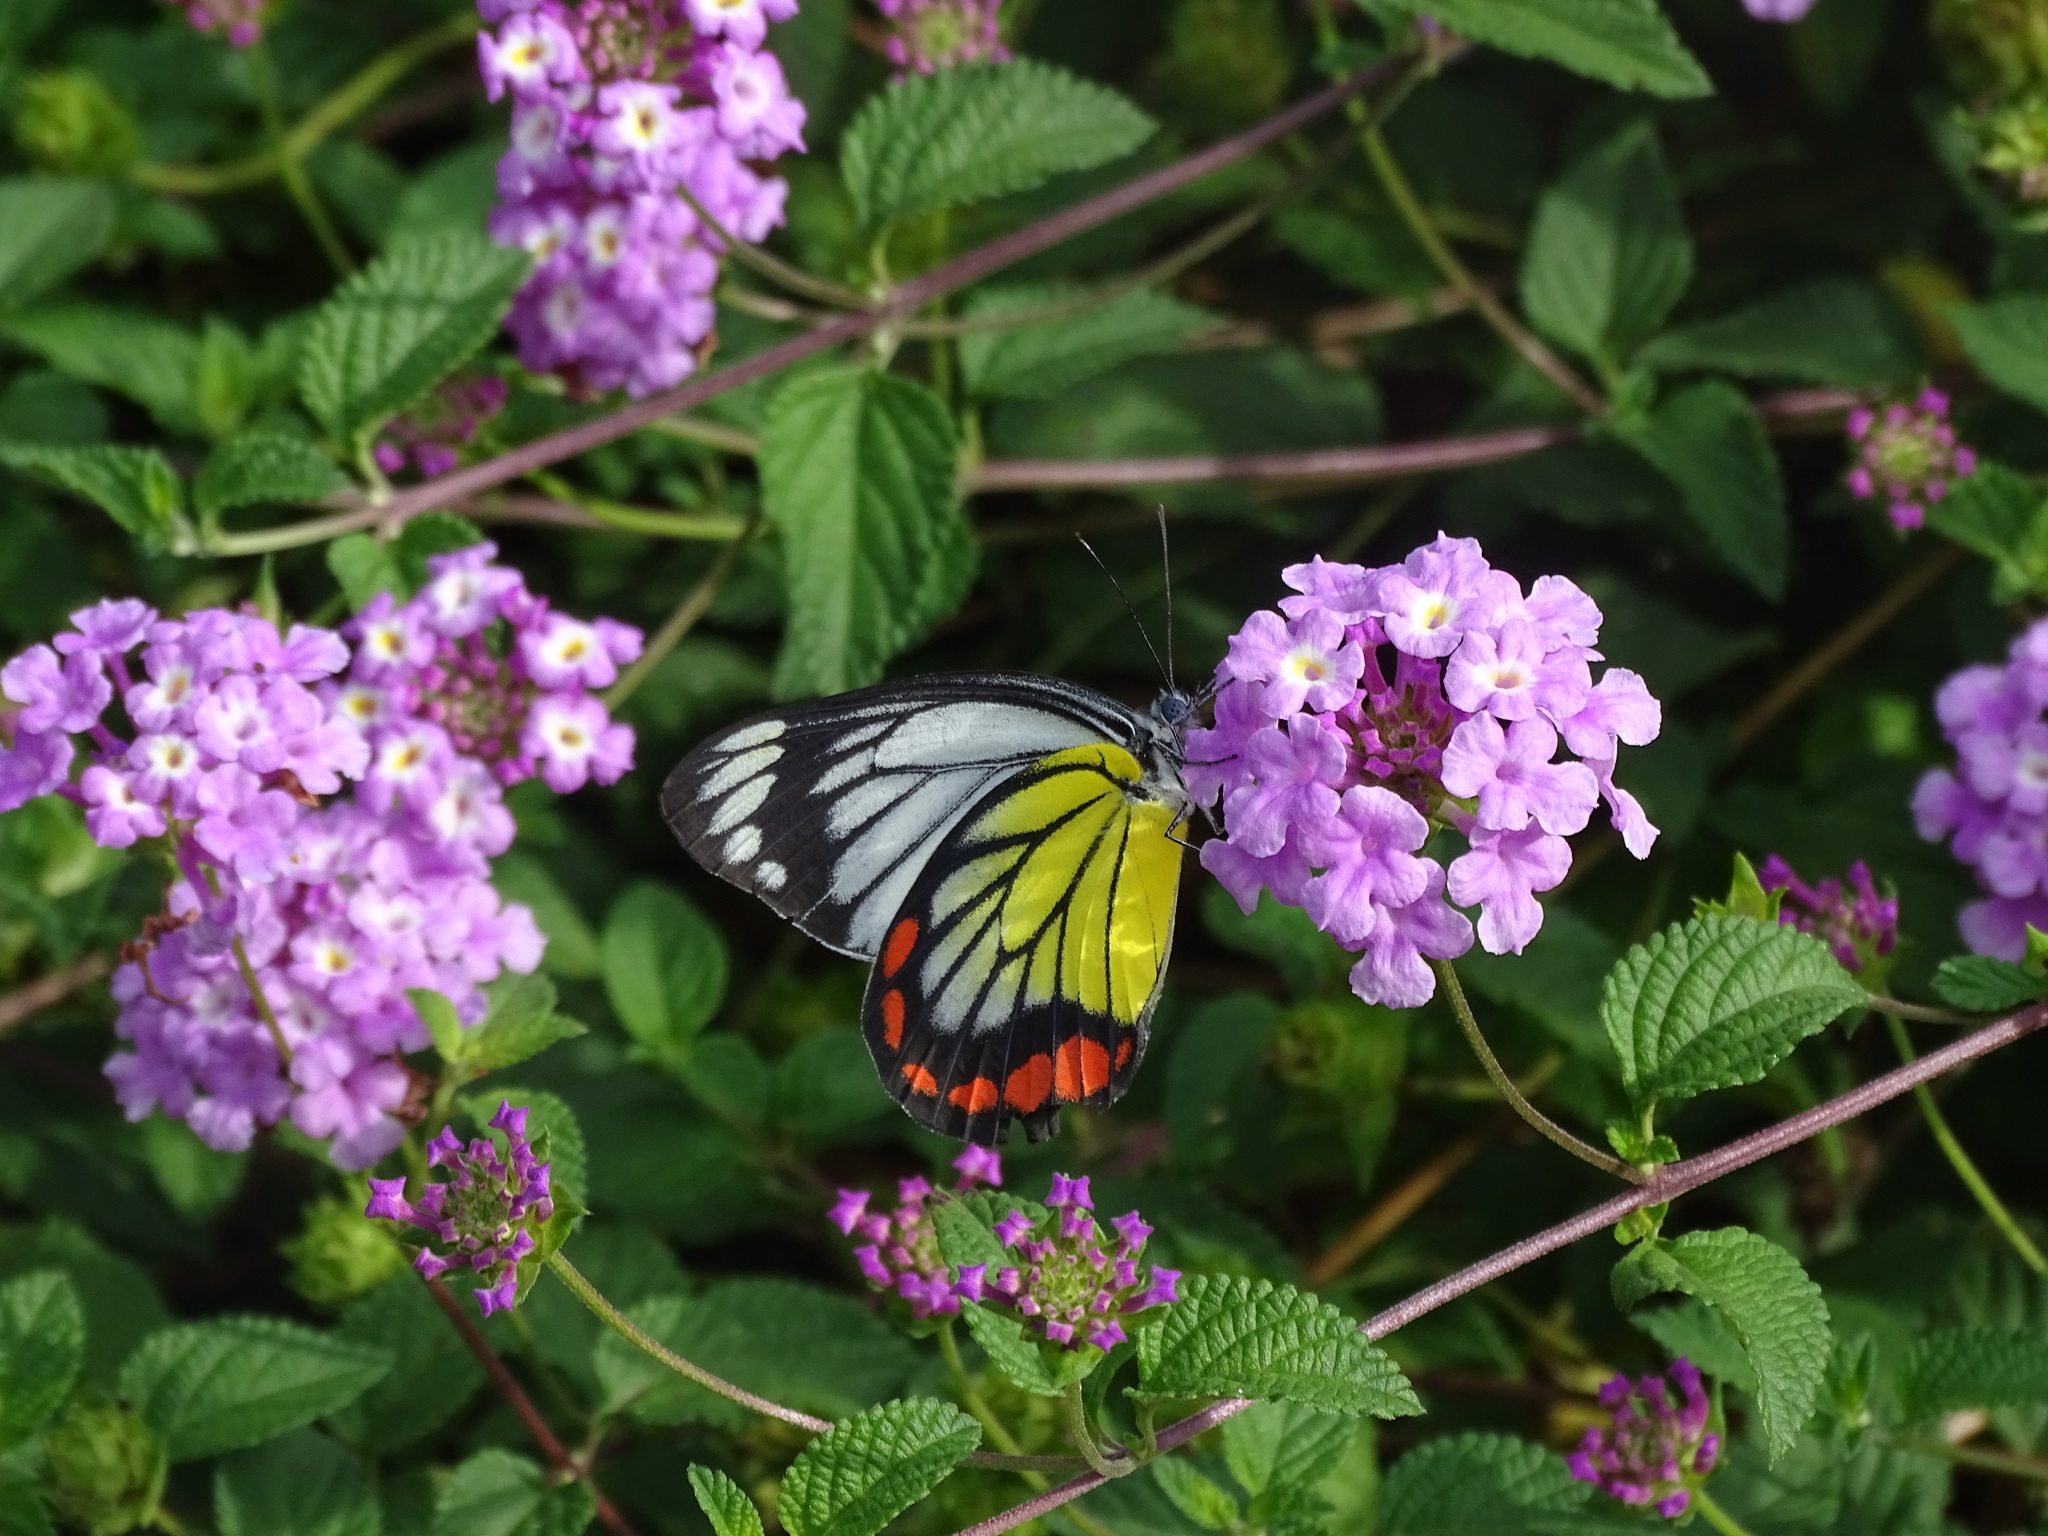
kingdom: Animalia
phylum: Arthropoda
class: Insecta
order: Lepidoptera
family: Pieridae
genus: Delias
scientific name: Delias hyparete
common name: Painted jezebel
